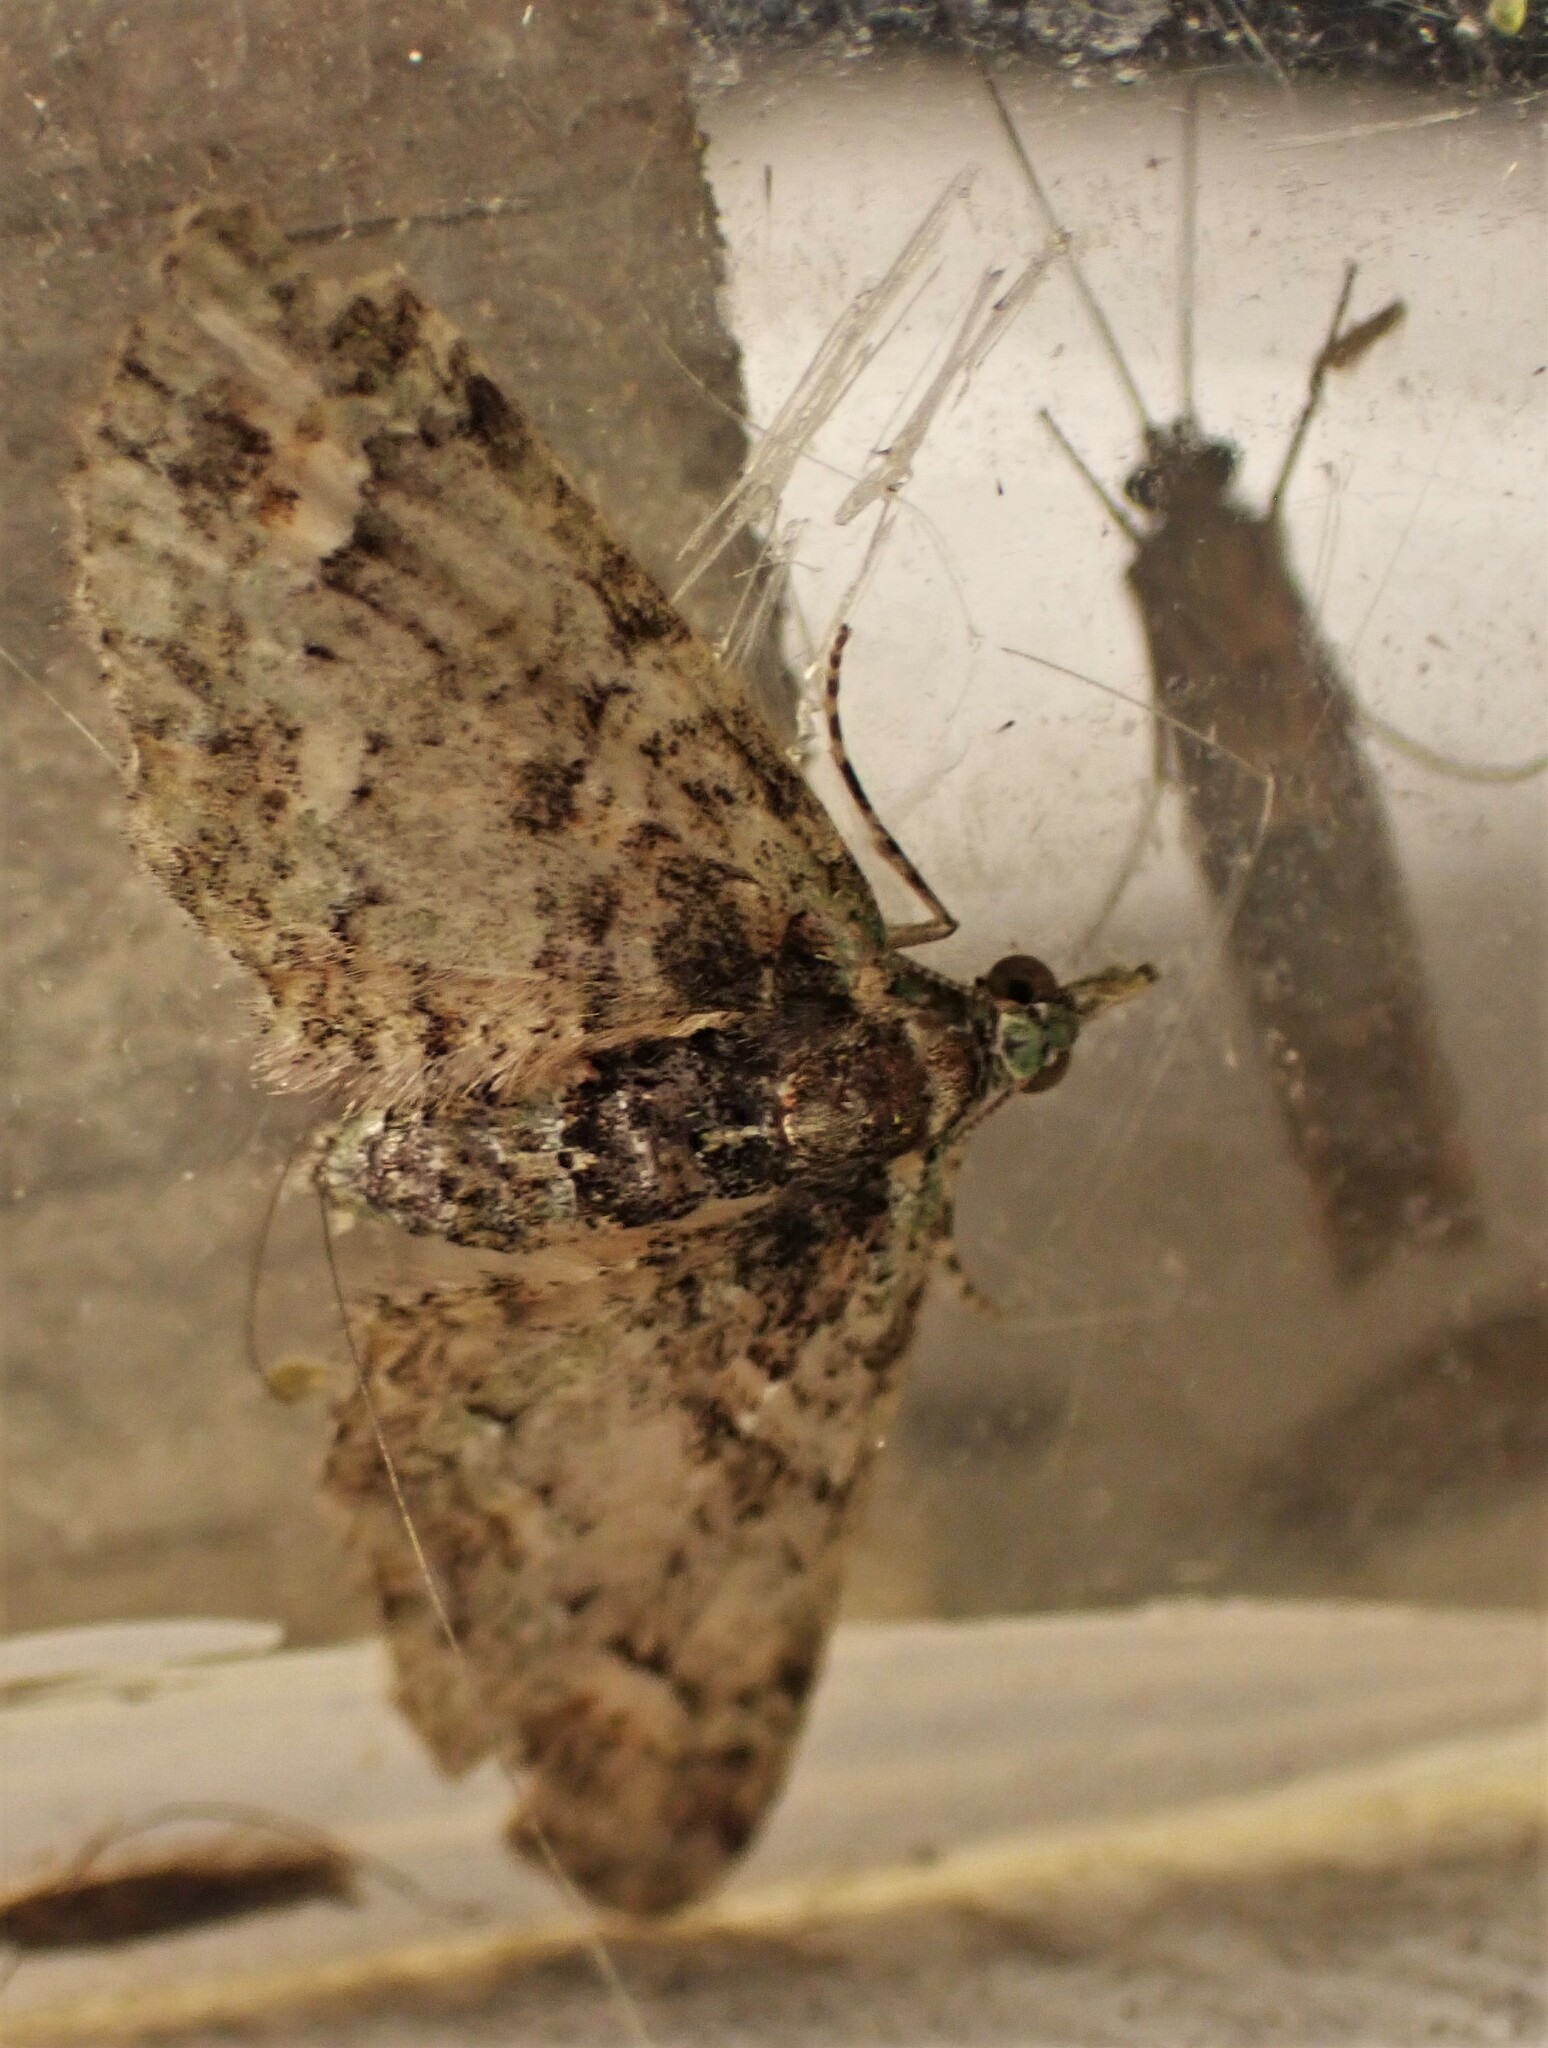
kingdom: Animalia
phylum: Arthropoda
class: Insecta
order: Lepidoptera
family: Geometridae
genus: Idaea
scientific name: Idaea mutanda
